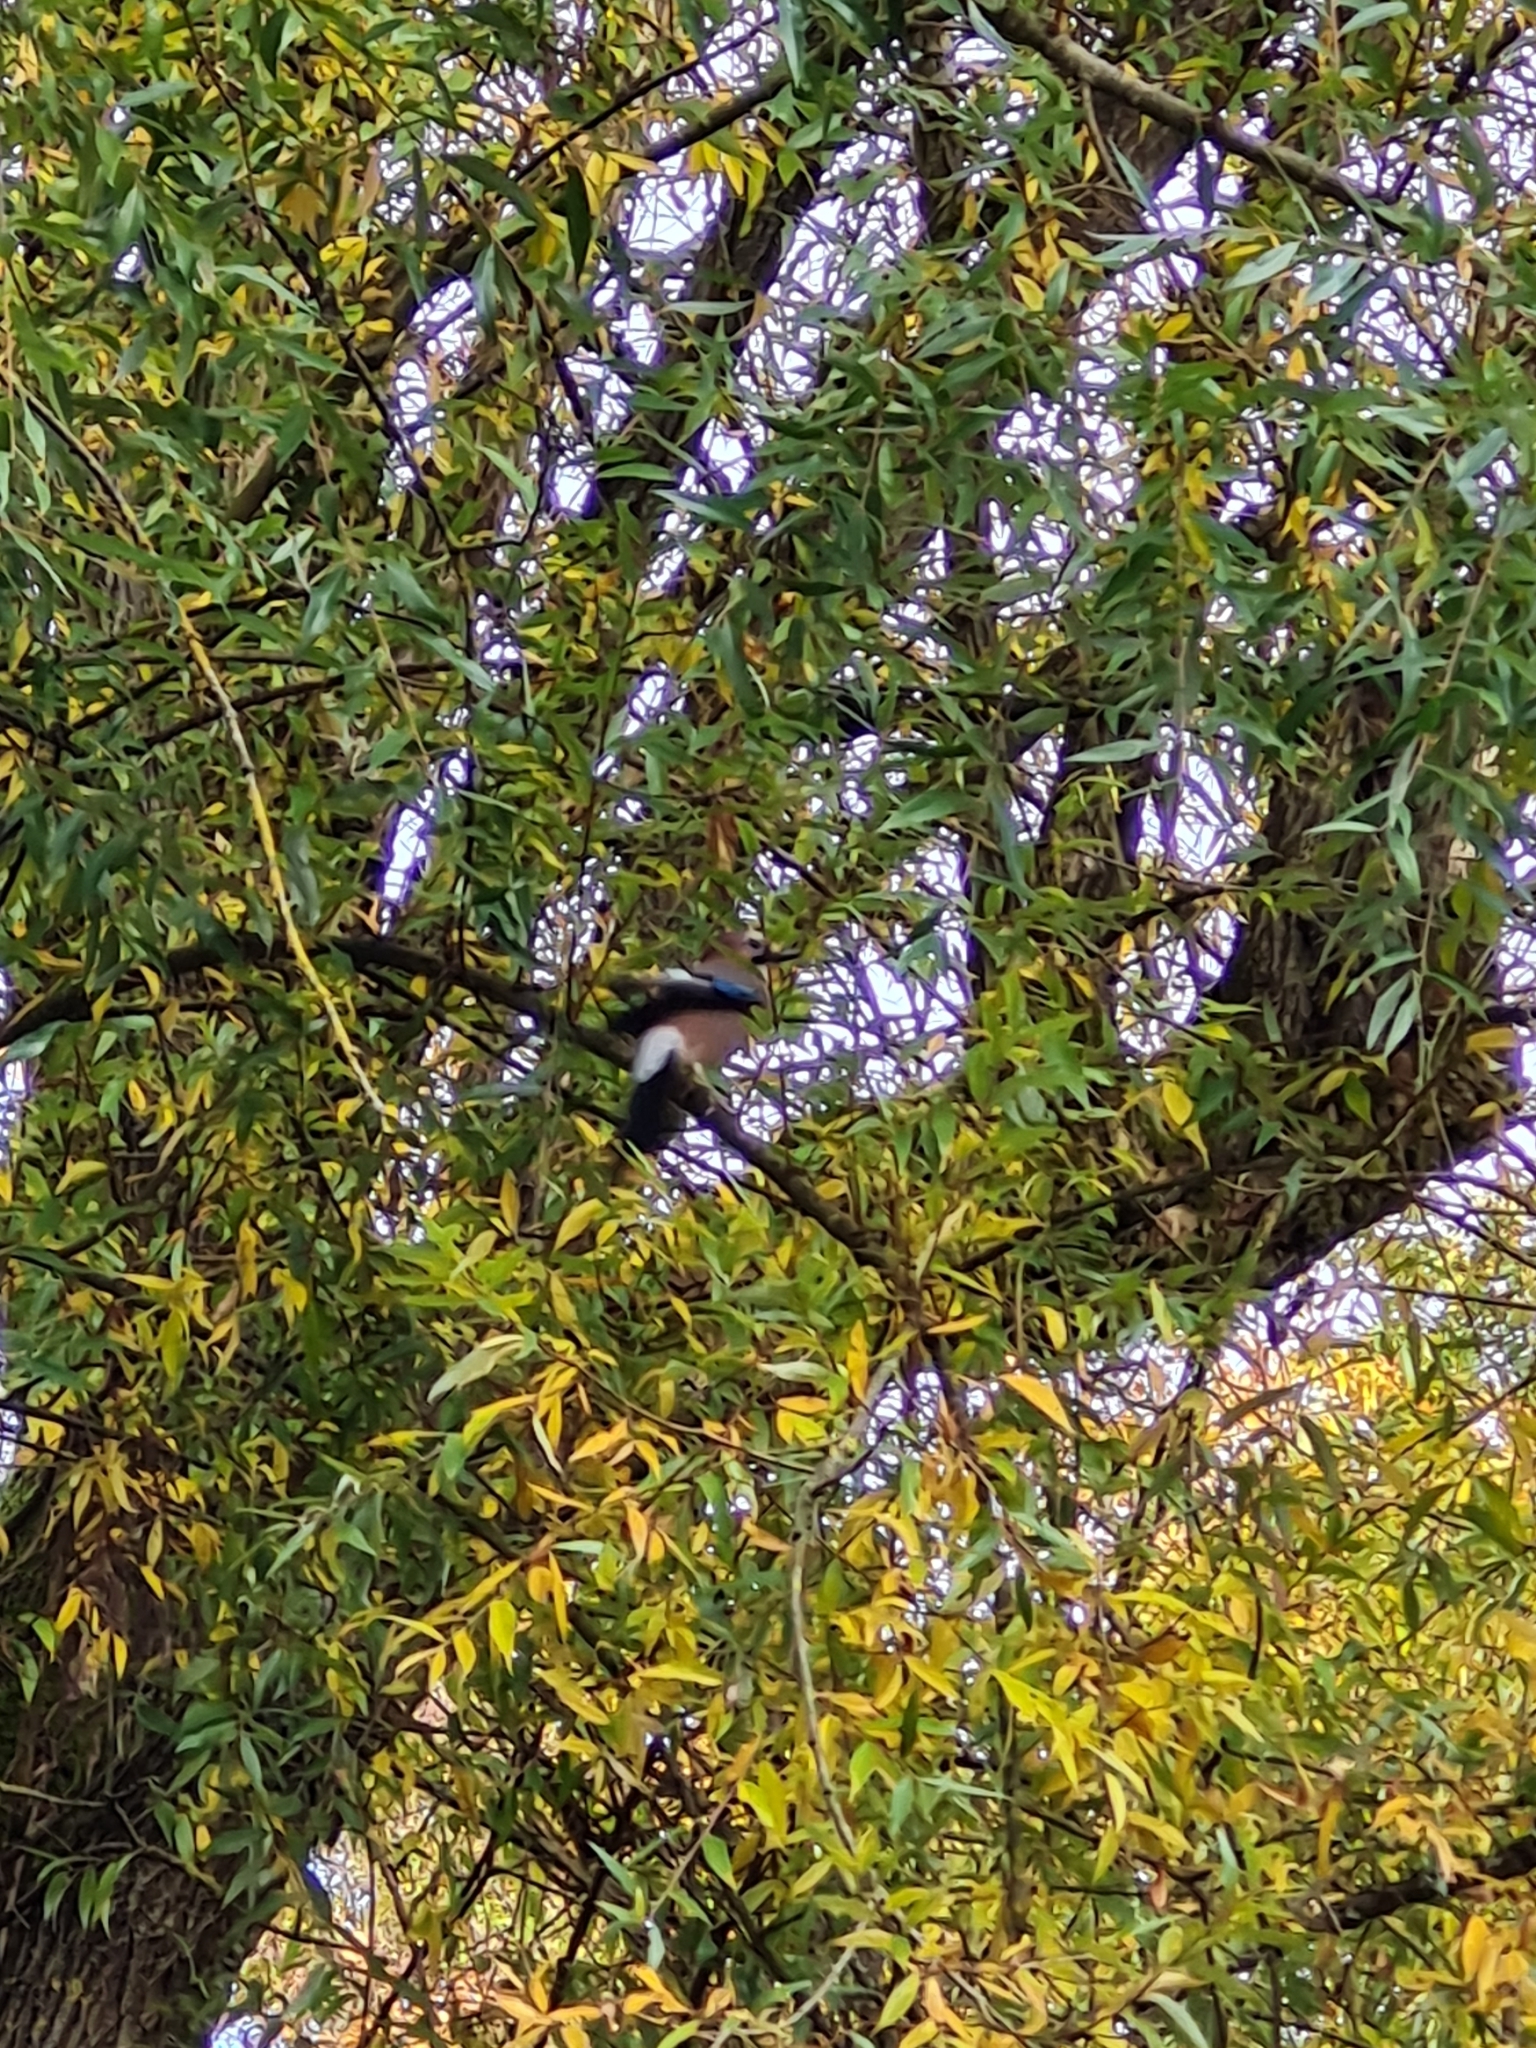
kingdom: Animalia
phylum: Chordata
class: Aves
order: Passeriformes
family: Corvidae
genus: Garrulus
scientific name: Garrulus glandarius
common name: Eurasian jay
